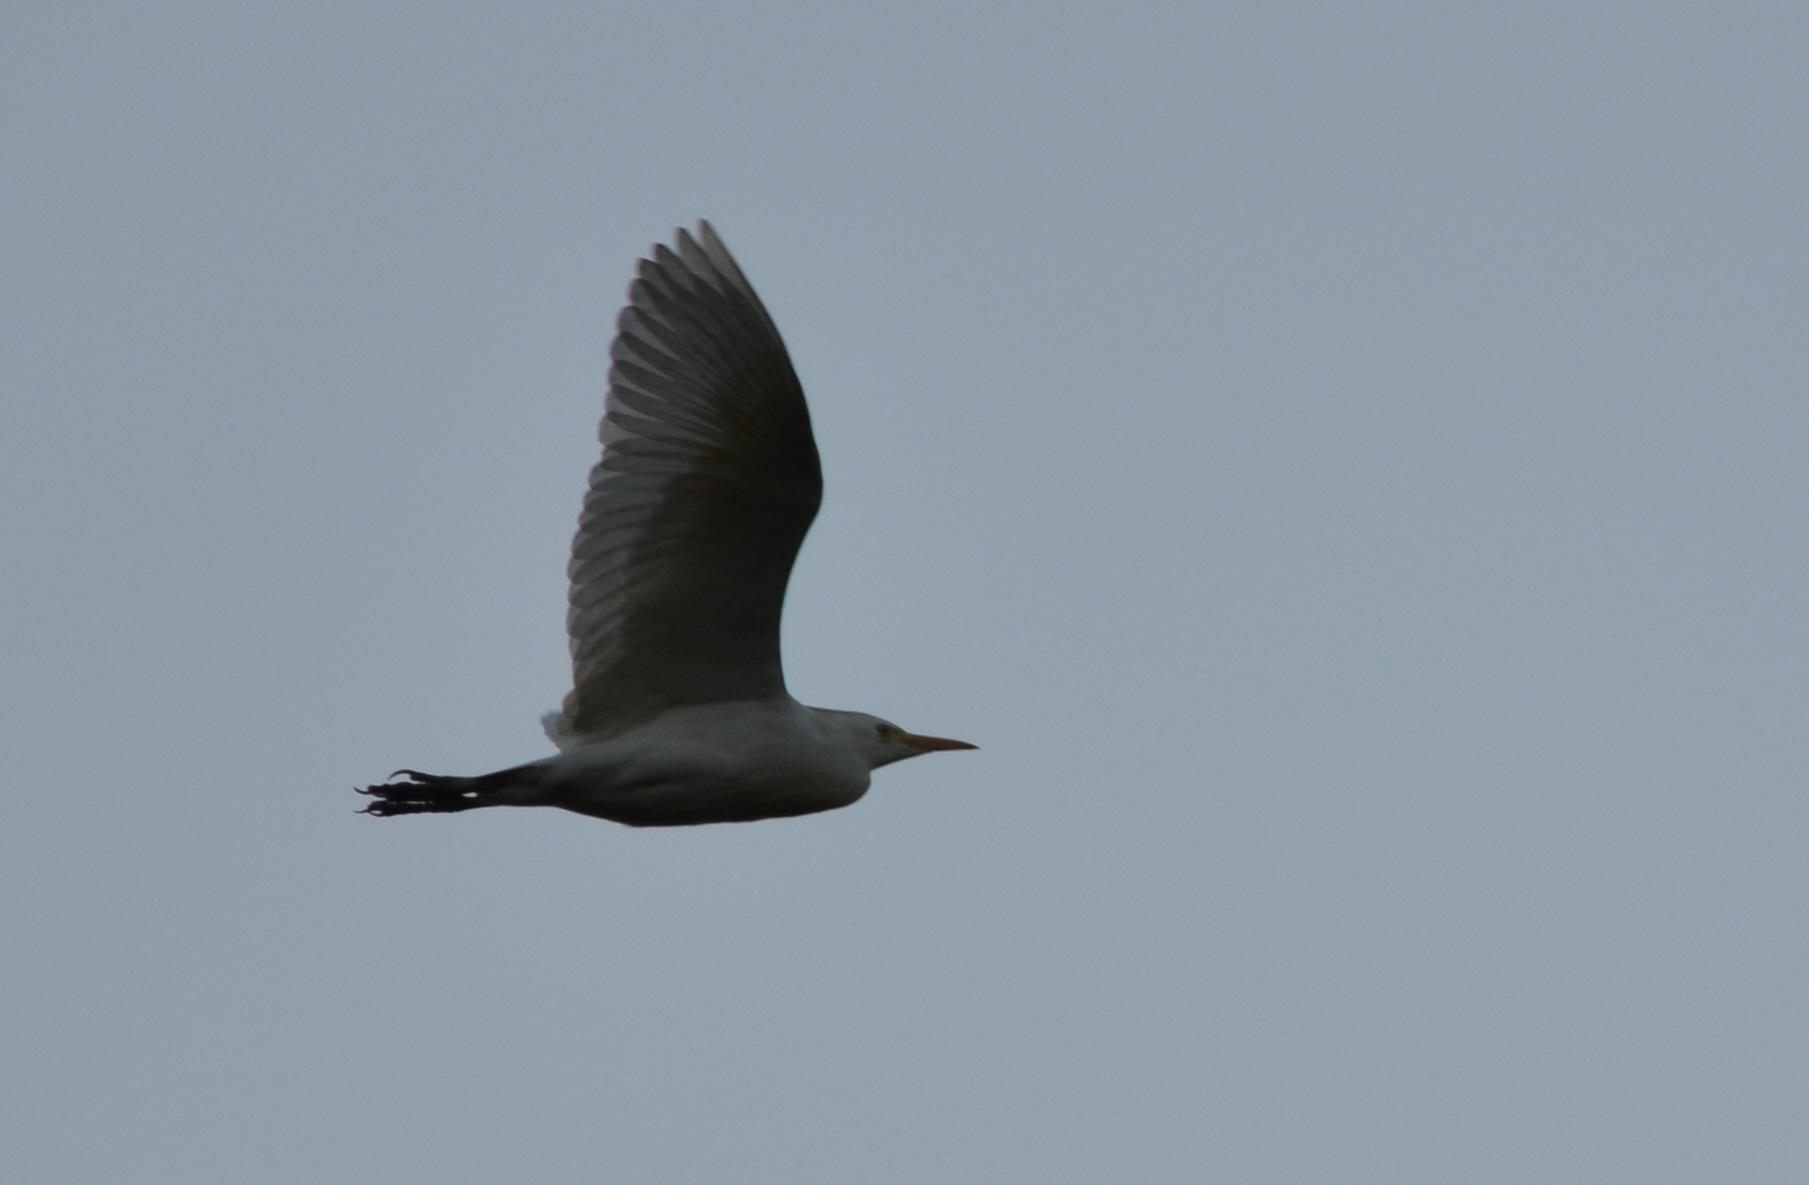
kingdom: Animalia
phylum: Chordata
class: Aves
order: Pelecaniformes
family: Ardeidae
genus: Bubulcus
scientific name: Bubulcus ibis
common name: Cattle egret
